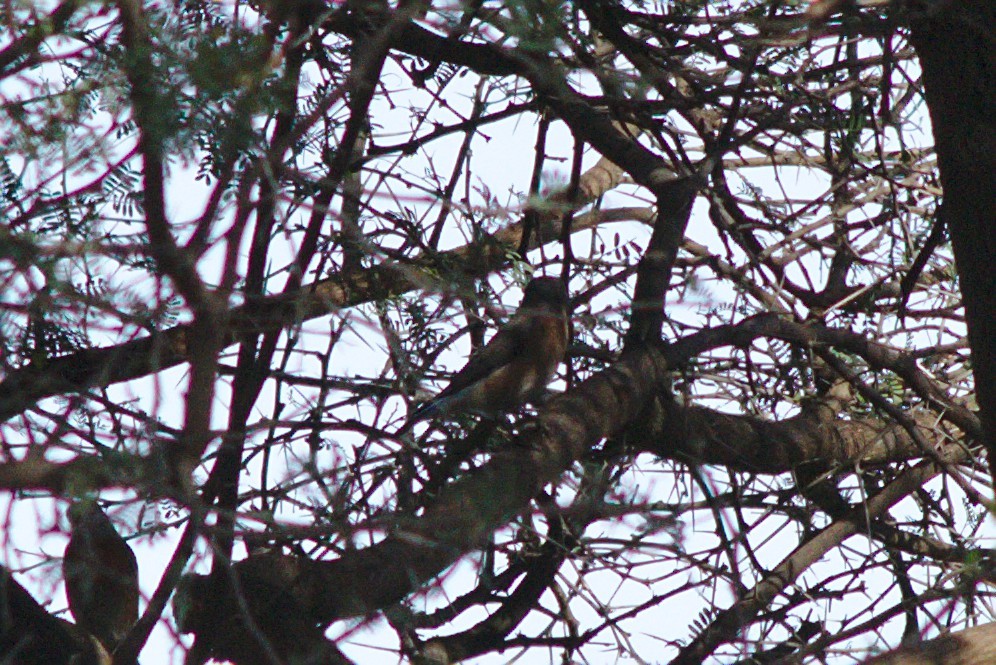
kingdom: Animalia
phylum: Chordata
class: Aves
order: Passeriformes
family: Turdidae
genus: Sialia
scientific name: Sialia mexicana
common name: Western bluebird
